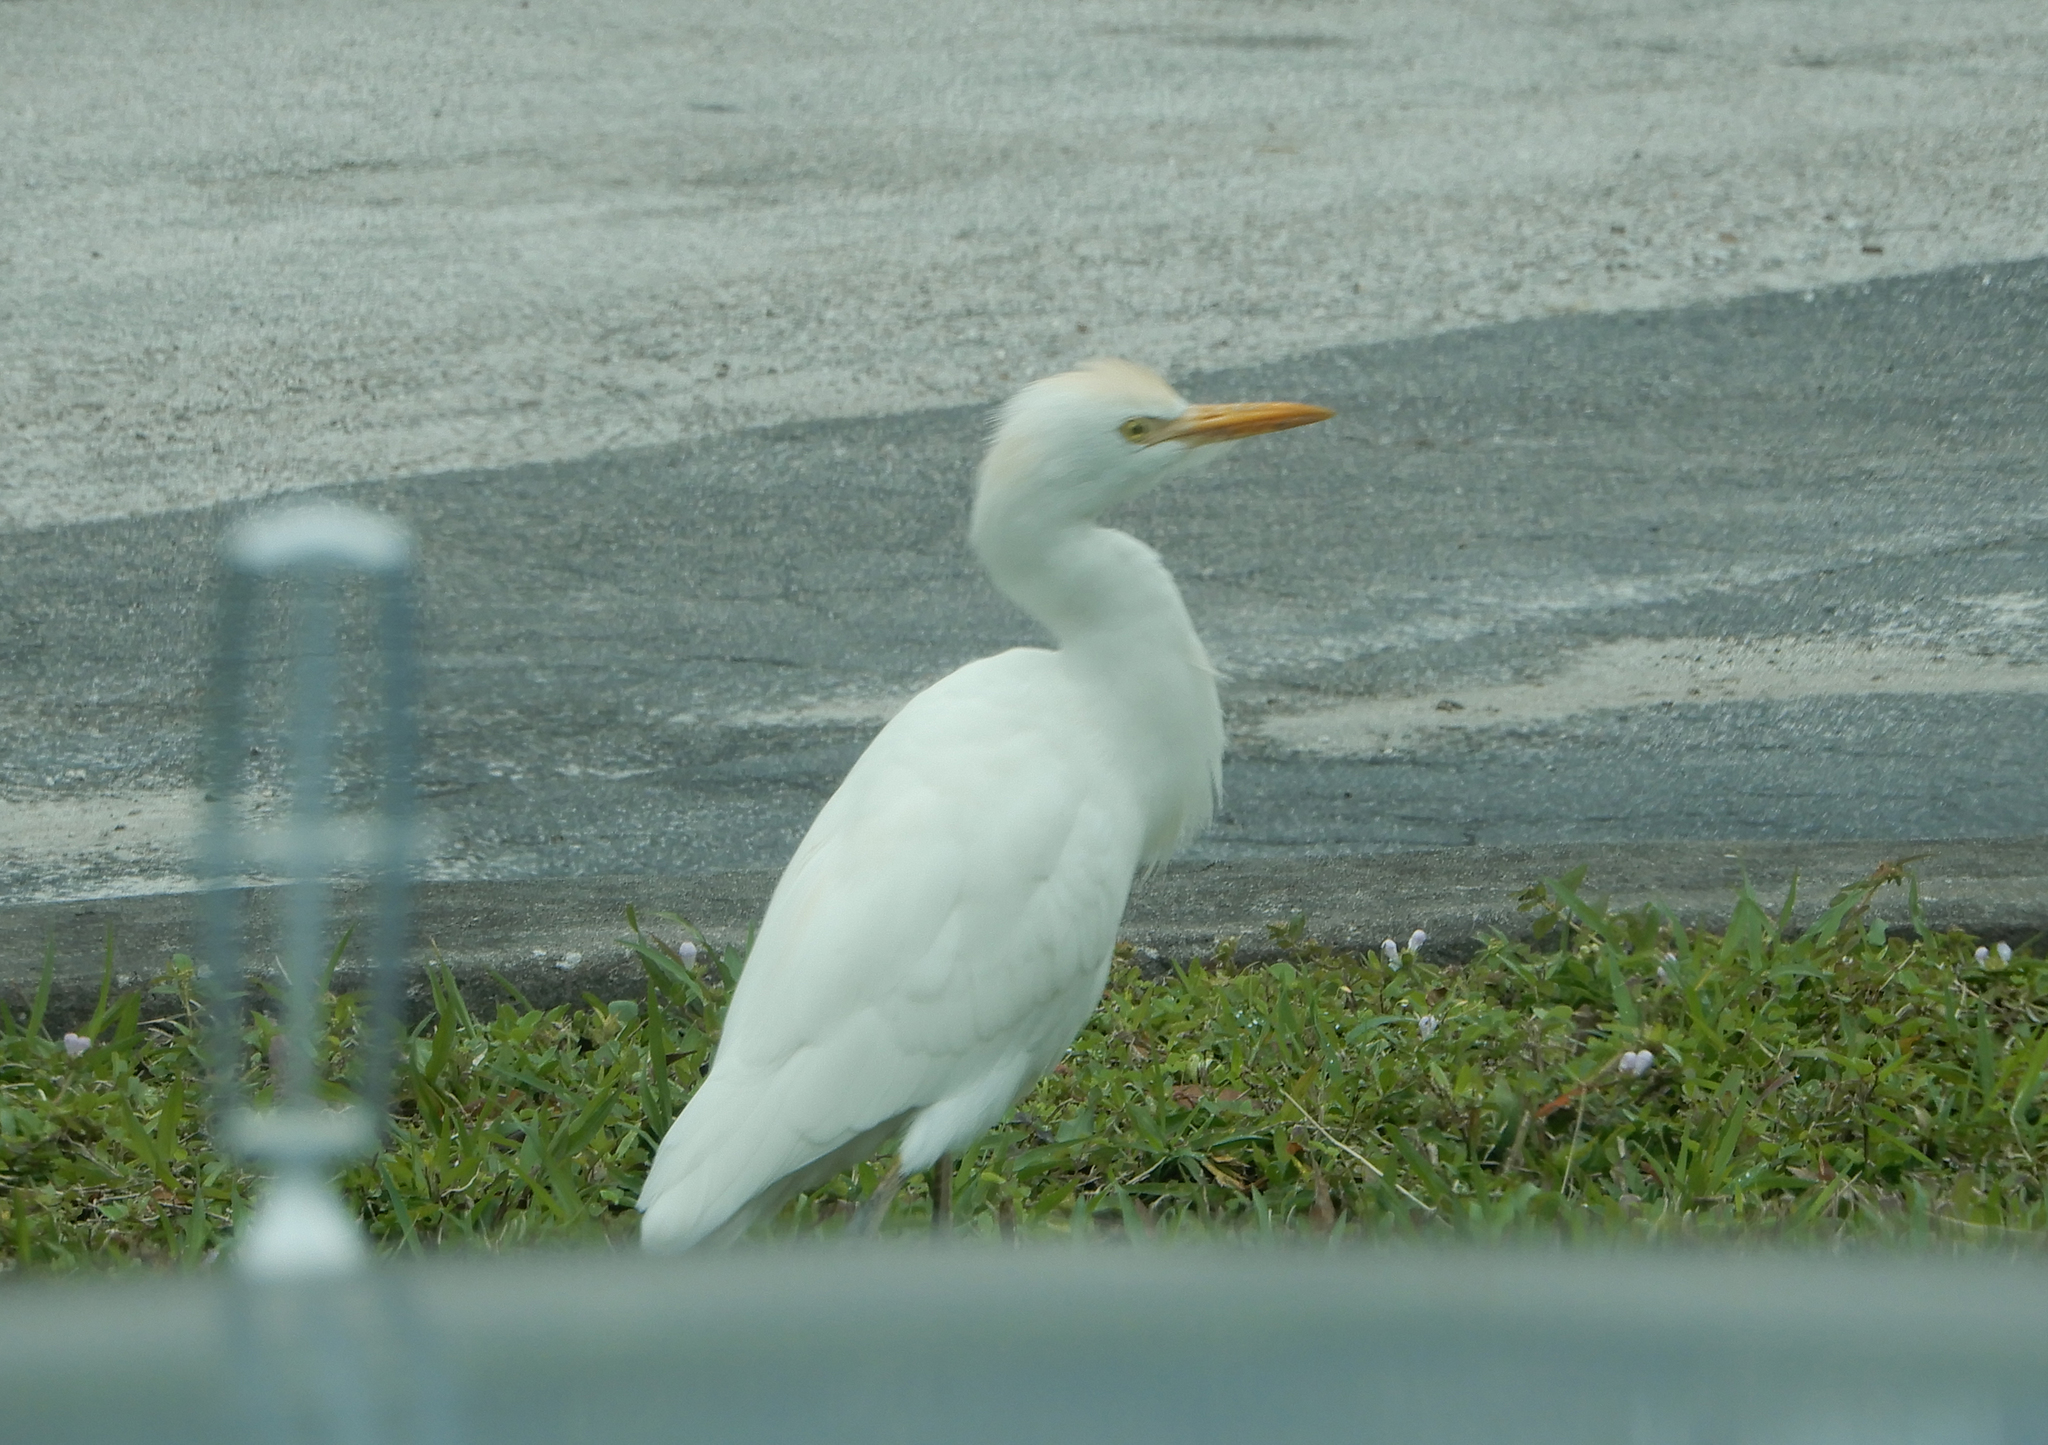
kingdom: Animalia
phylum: Chordata
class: Aves
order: Pelecaniformes
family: Ardeidae
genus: Bubulcus
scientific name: Bubulcus ibis
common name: Cattle egret
